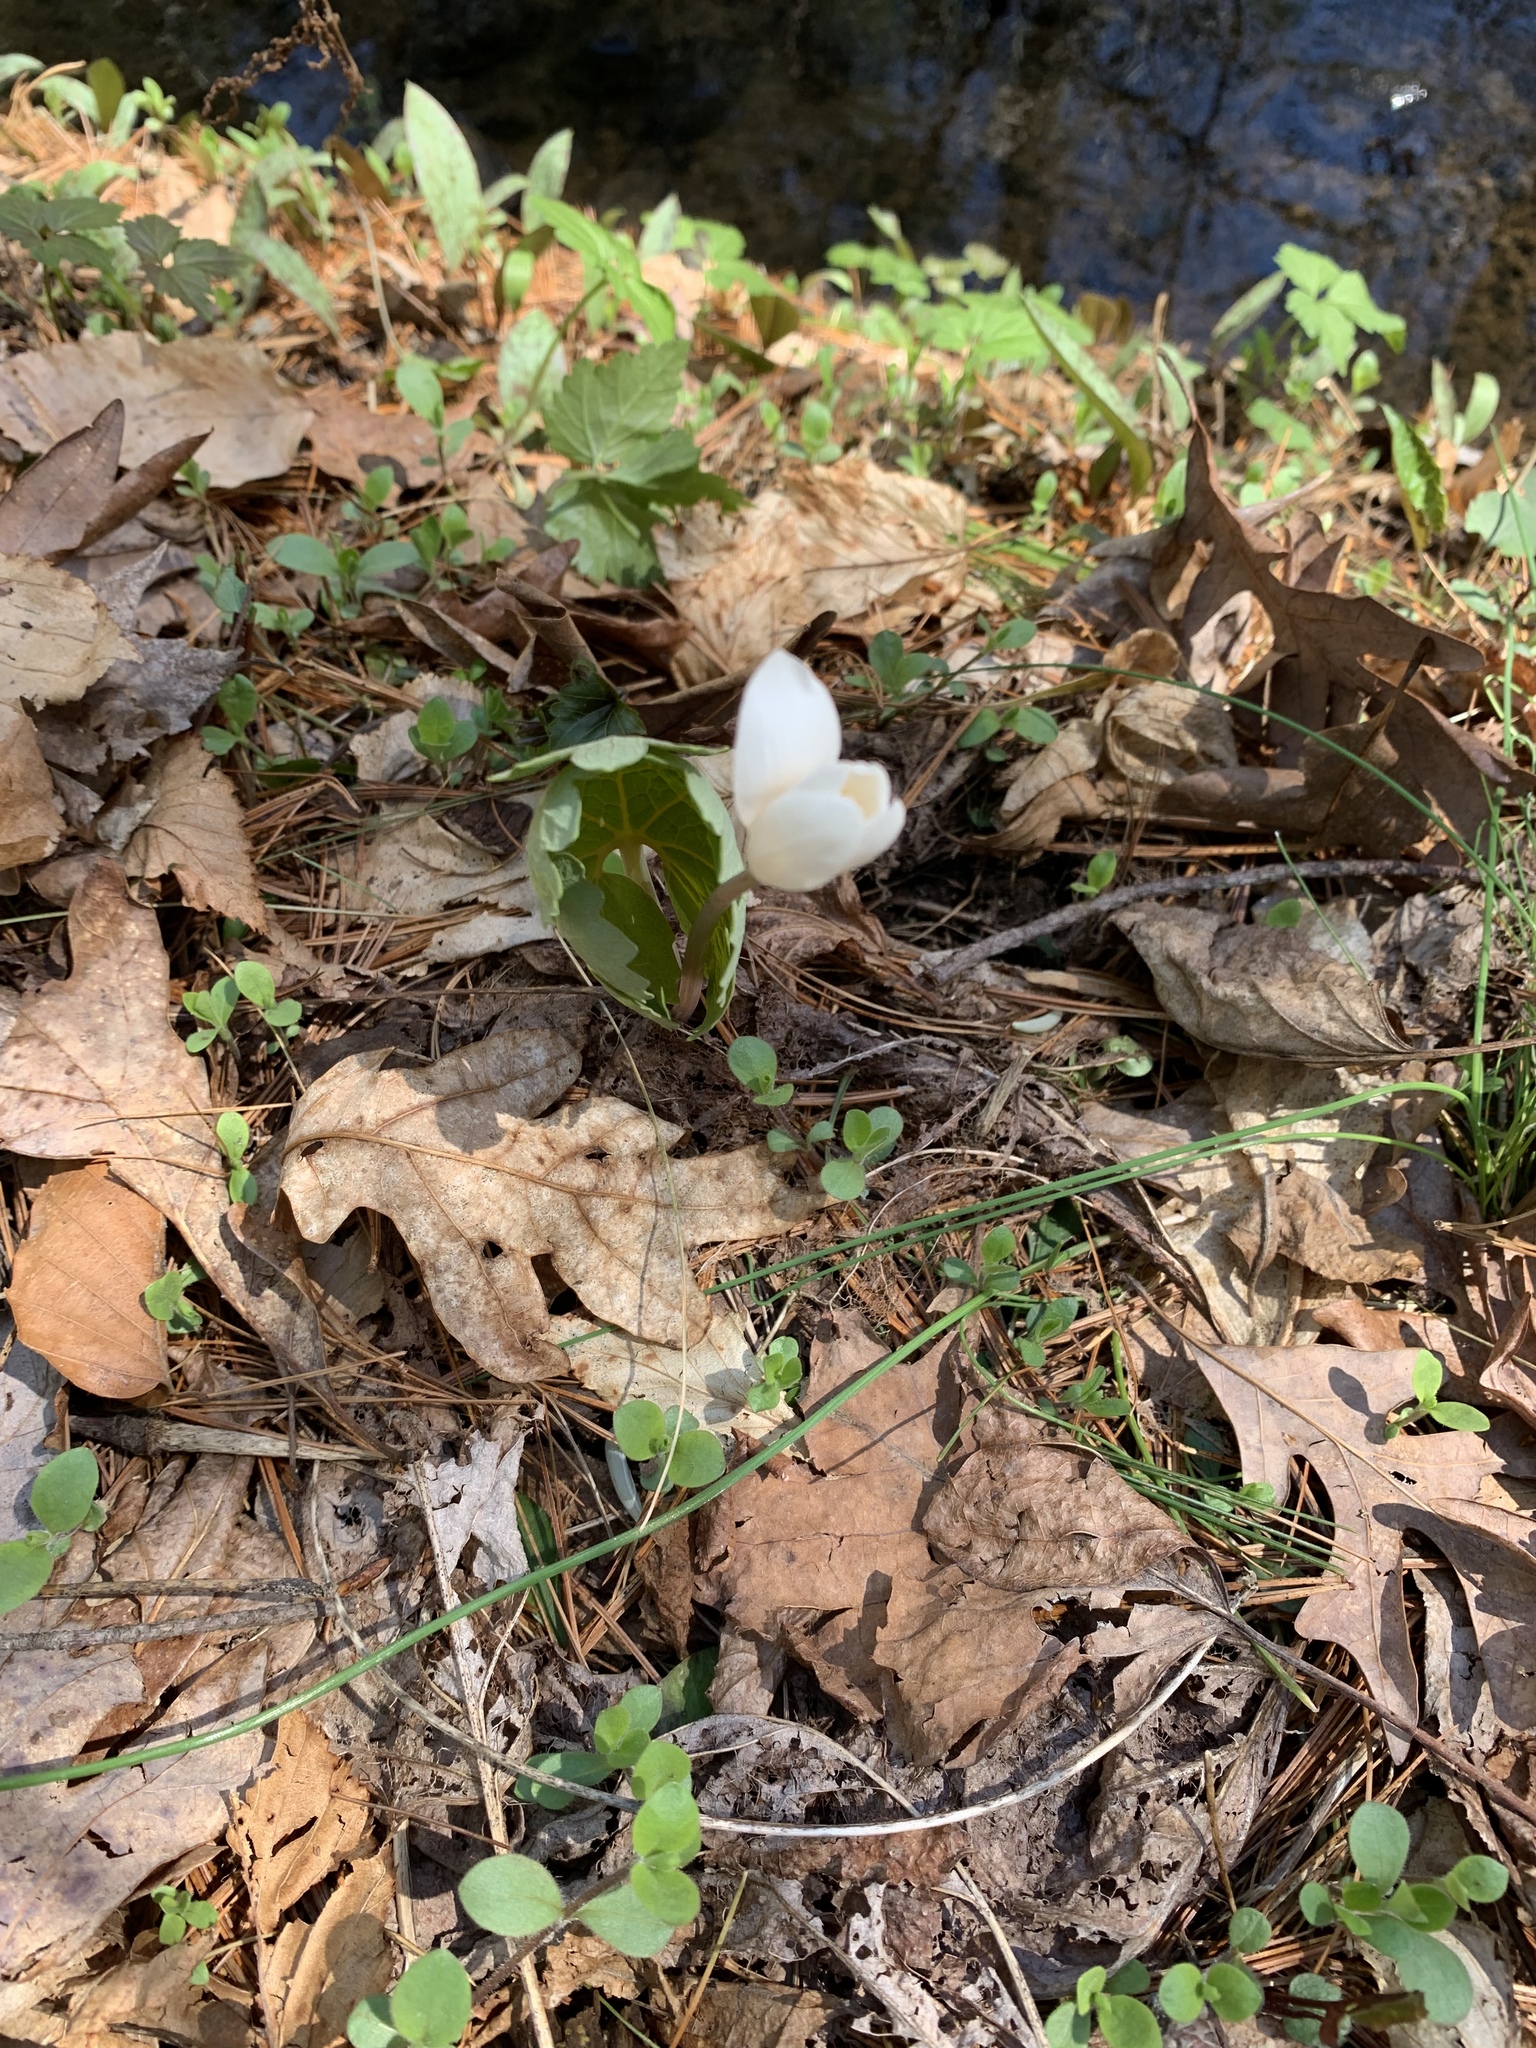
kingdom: Plantae
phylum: Tracheophyta
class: Magnoliopsida
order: Ranunculales
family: Papaveraceae
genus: Sanguinaria
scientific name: Sanguinaria canadensis
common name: Bloodroot
